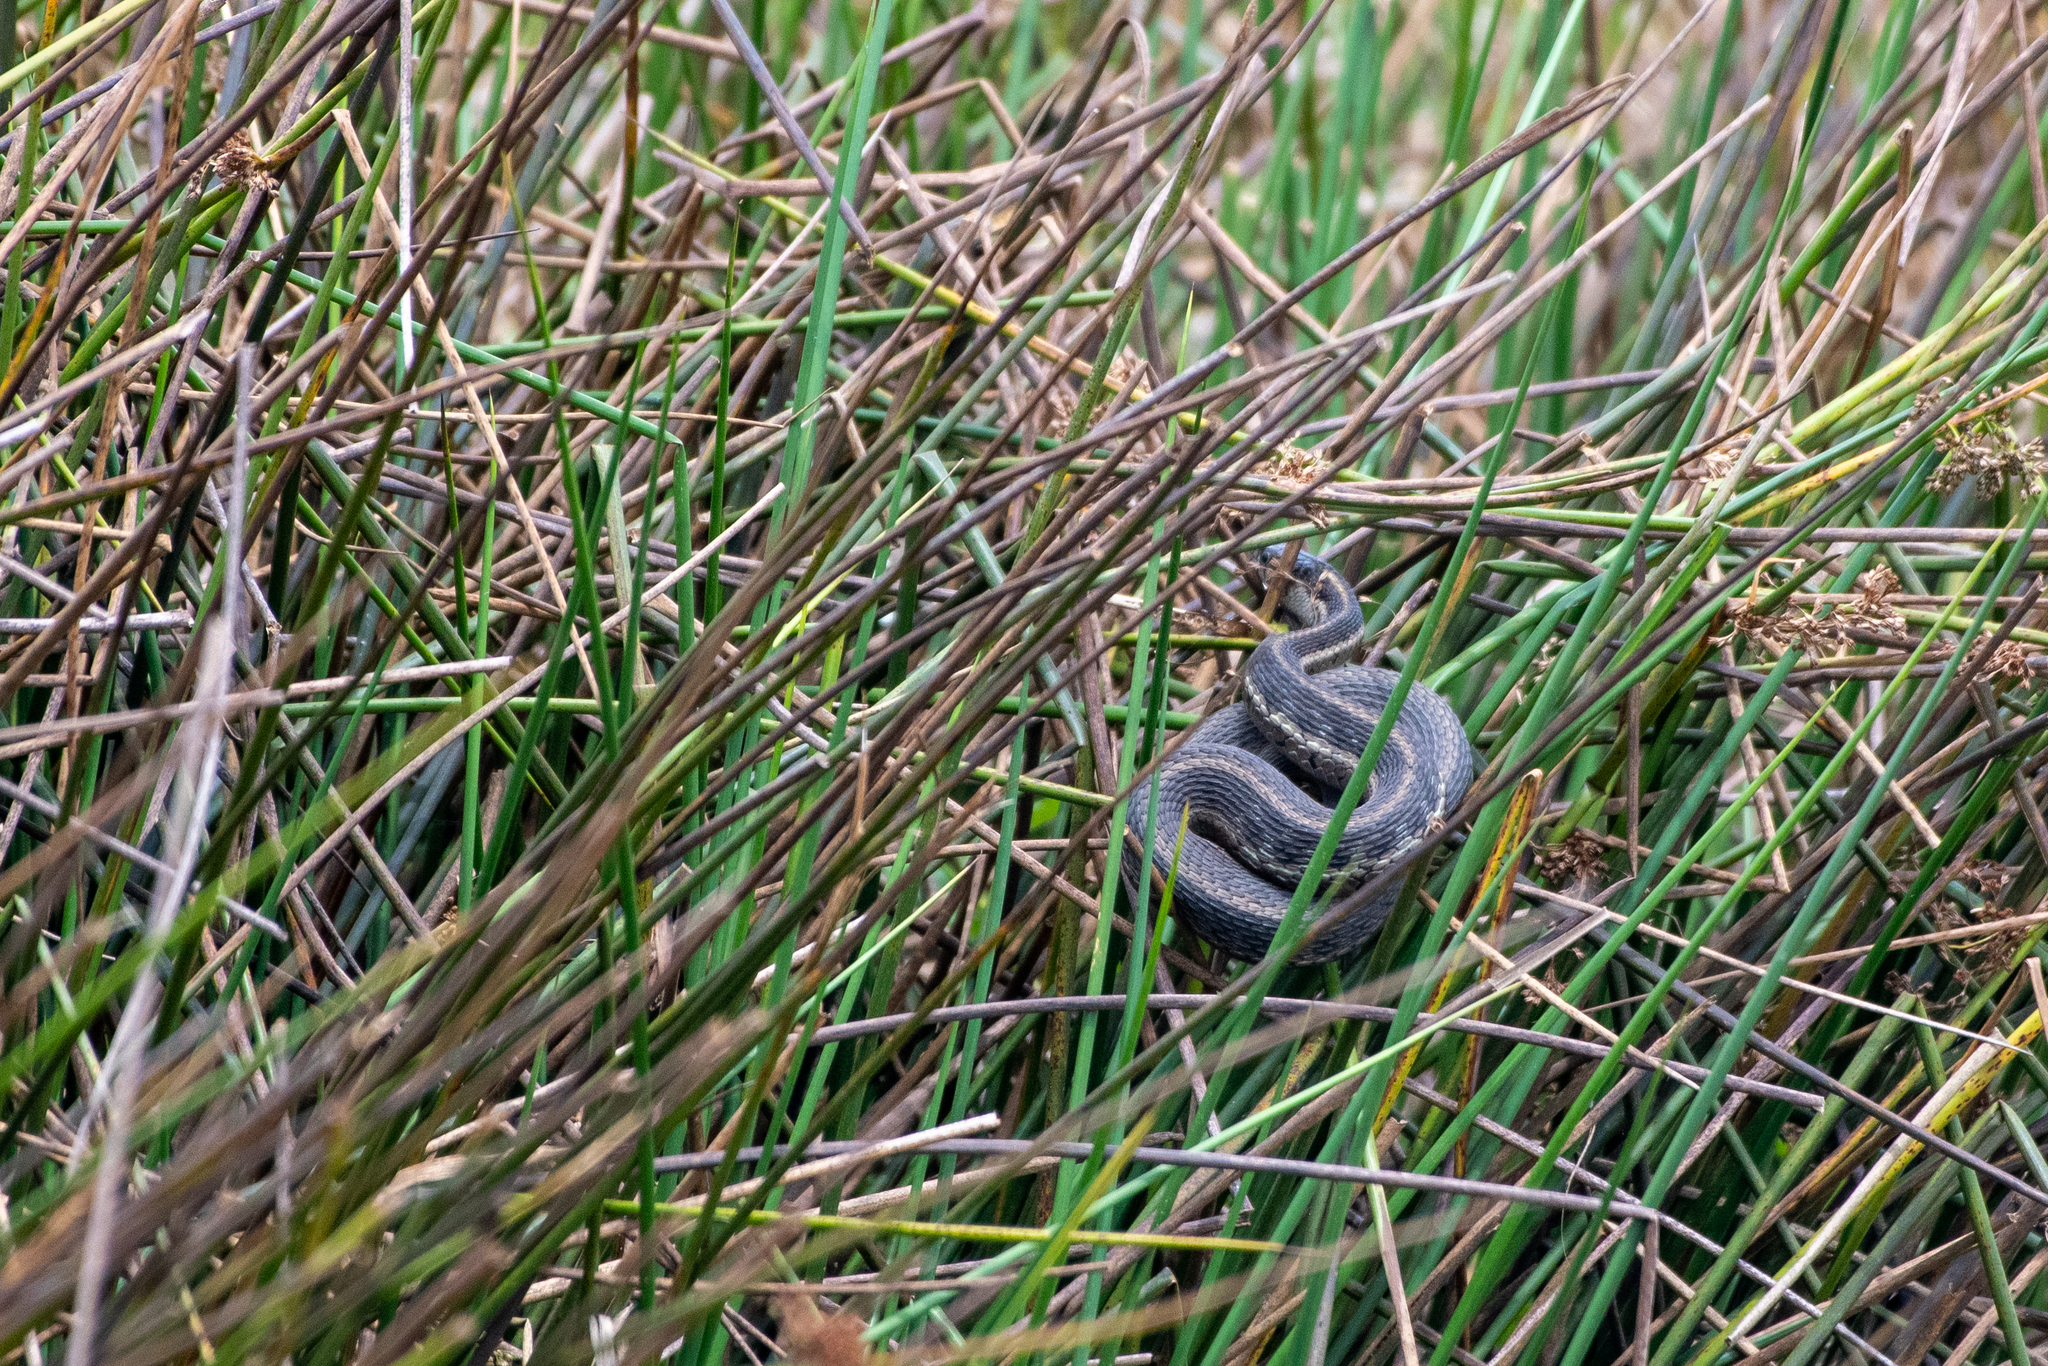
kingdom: Animalia
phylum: Chordata
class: Squamata
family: Colubridae
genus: Thamnophis
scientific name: Thamnophis fulvus
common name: Highland garter snake
